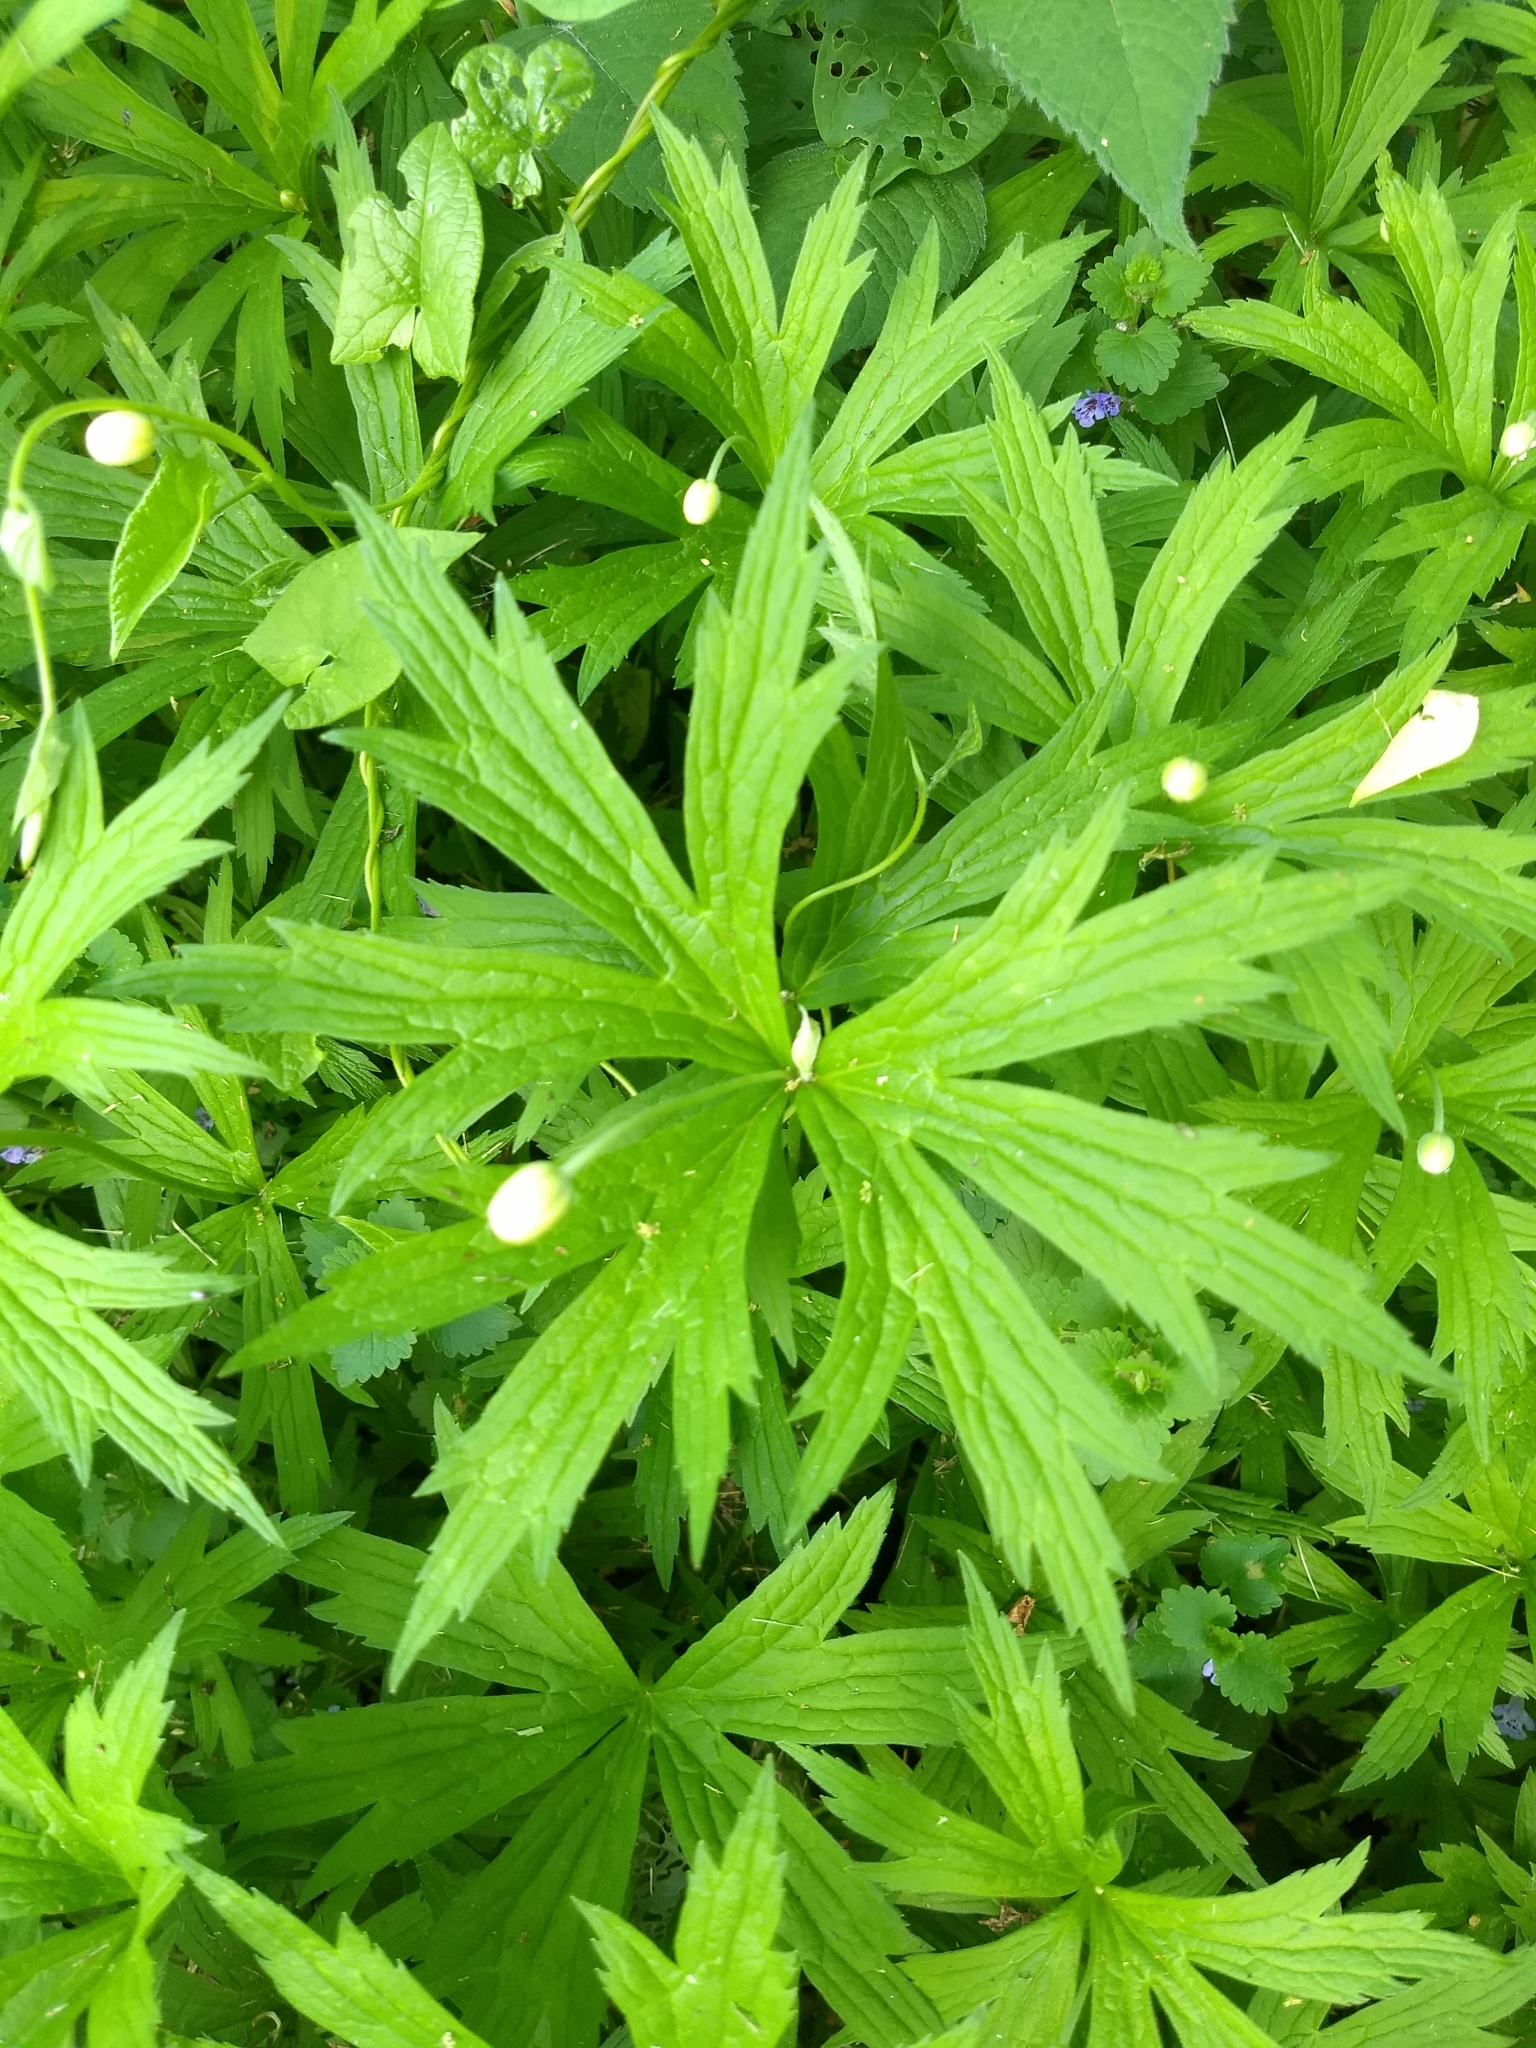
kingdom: Plantae
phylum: Tracheophyta
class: Magnoliopsida
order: Ranunculales
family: Ranunculaceae
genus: Anemonastrum
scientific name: Anemonastrum canadense
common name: Canada anemone
